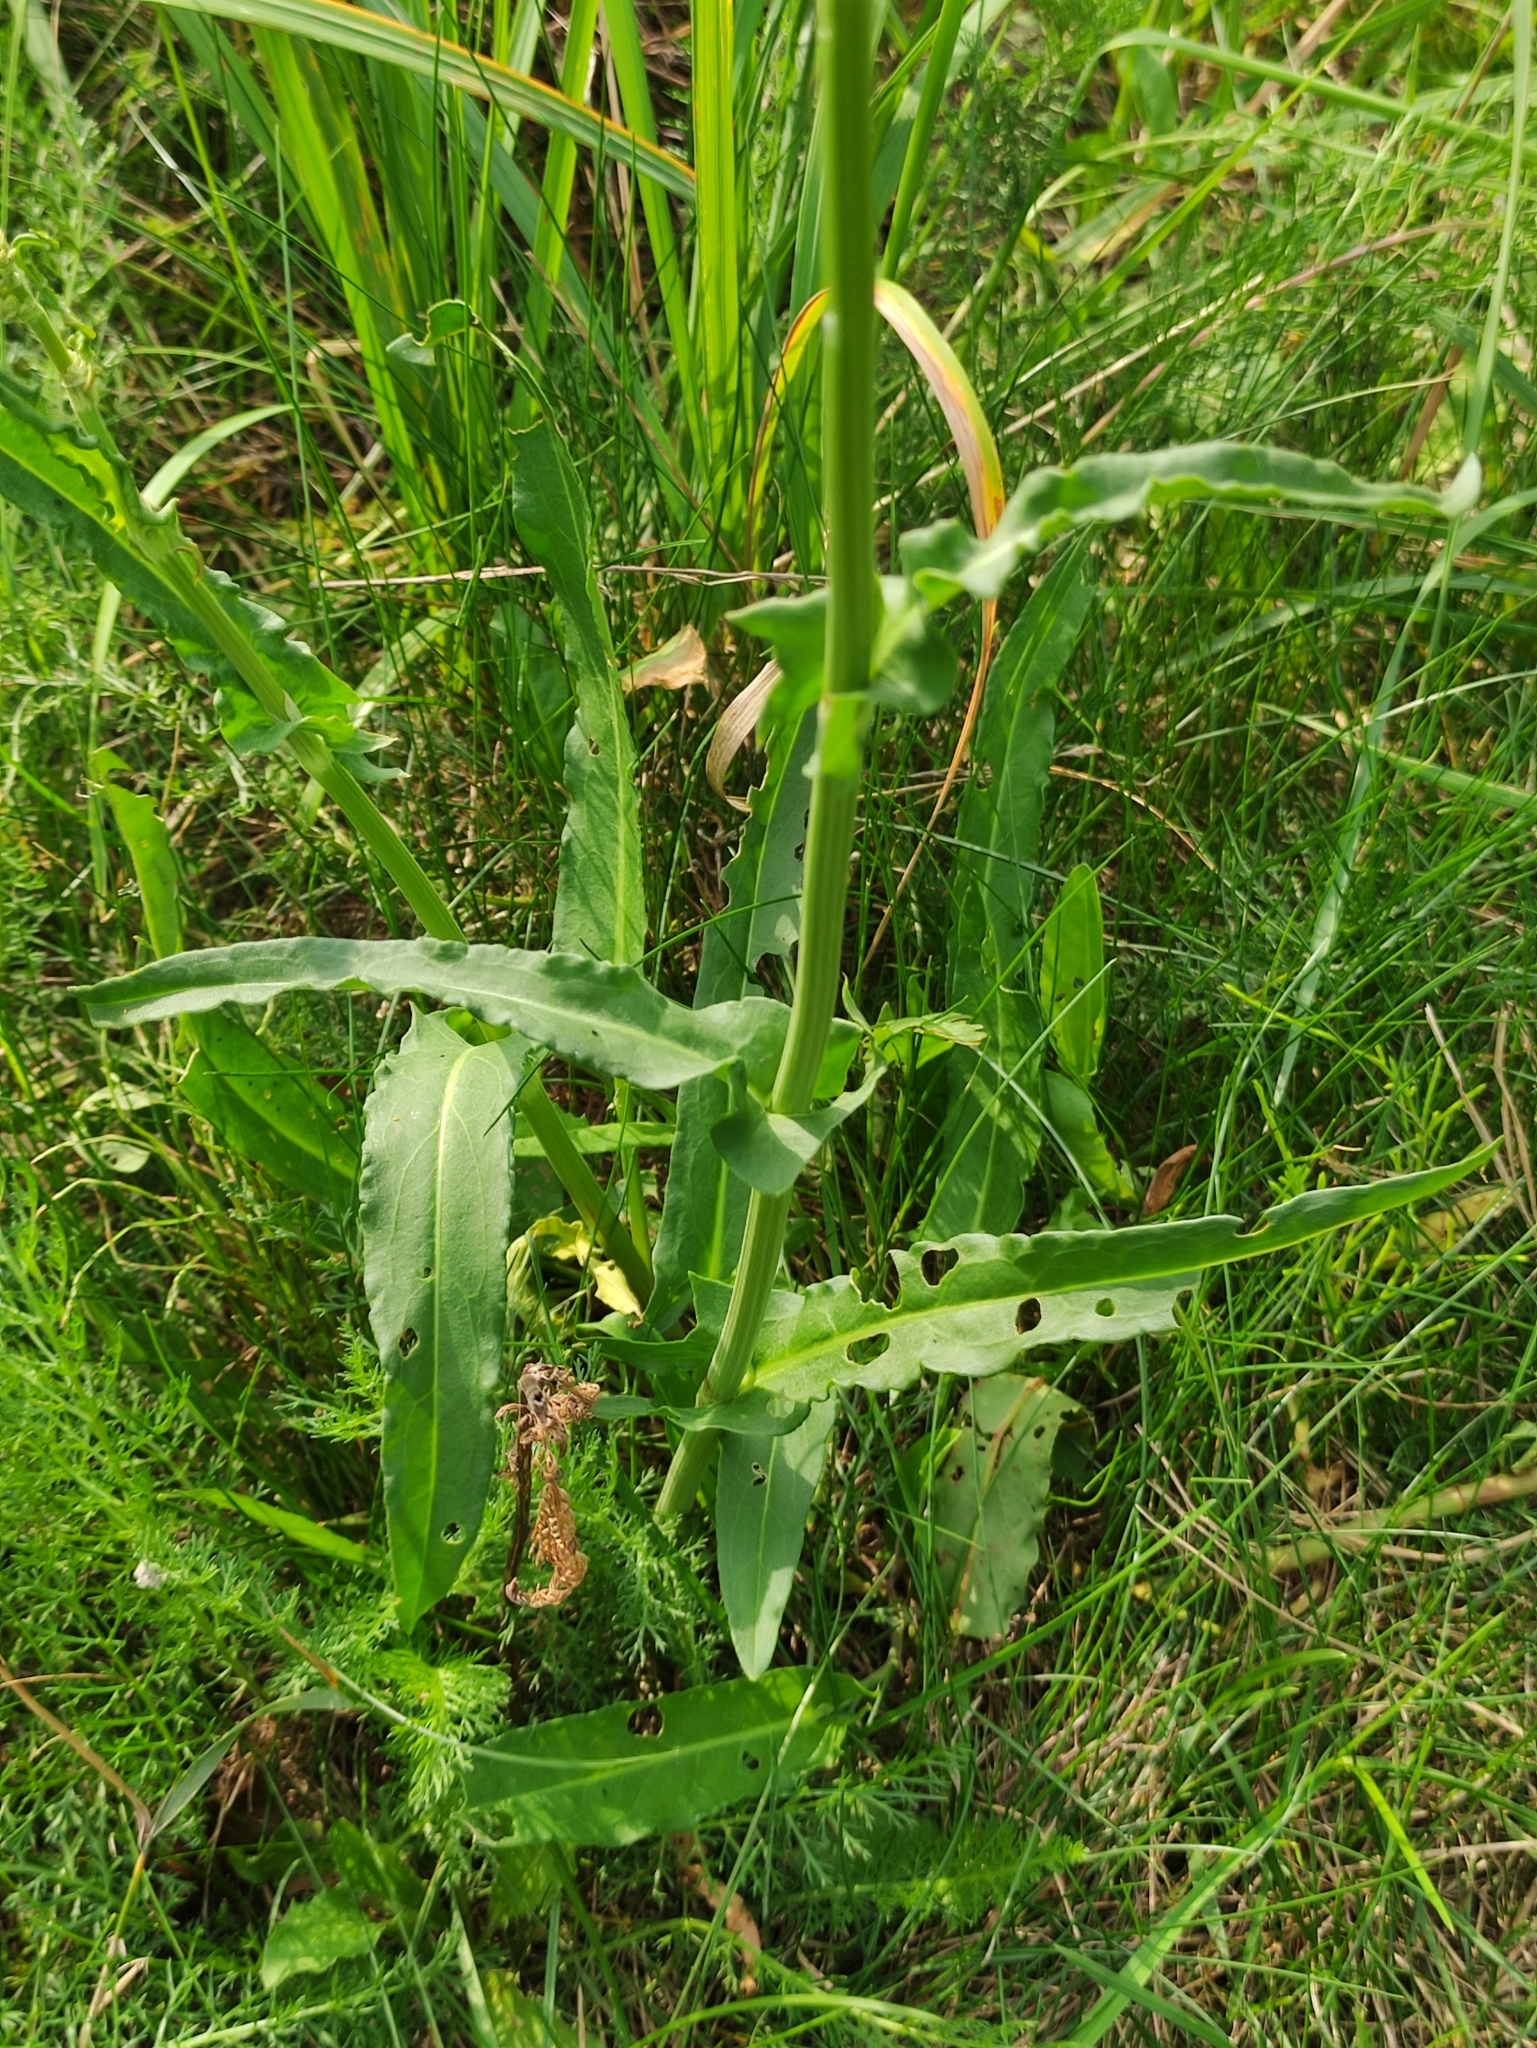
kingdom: Plantae
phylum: Tracheophyta
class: Magnoliopsida
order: Caryophyllales
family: Polygonaceae
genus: Rumex
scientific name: Rumex thyrsiflorus
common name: Garden sorrel
